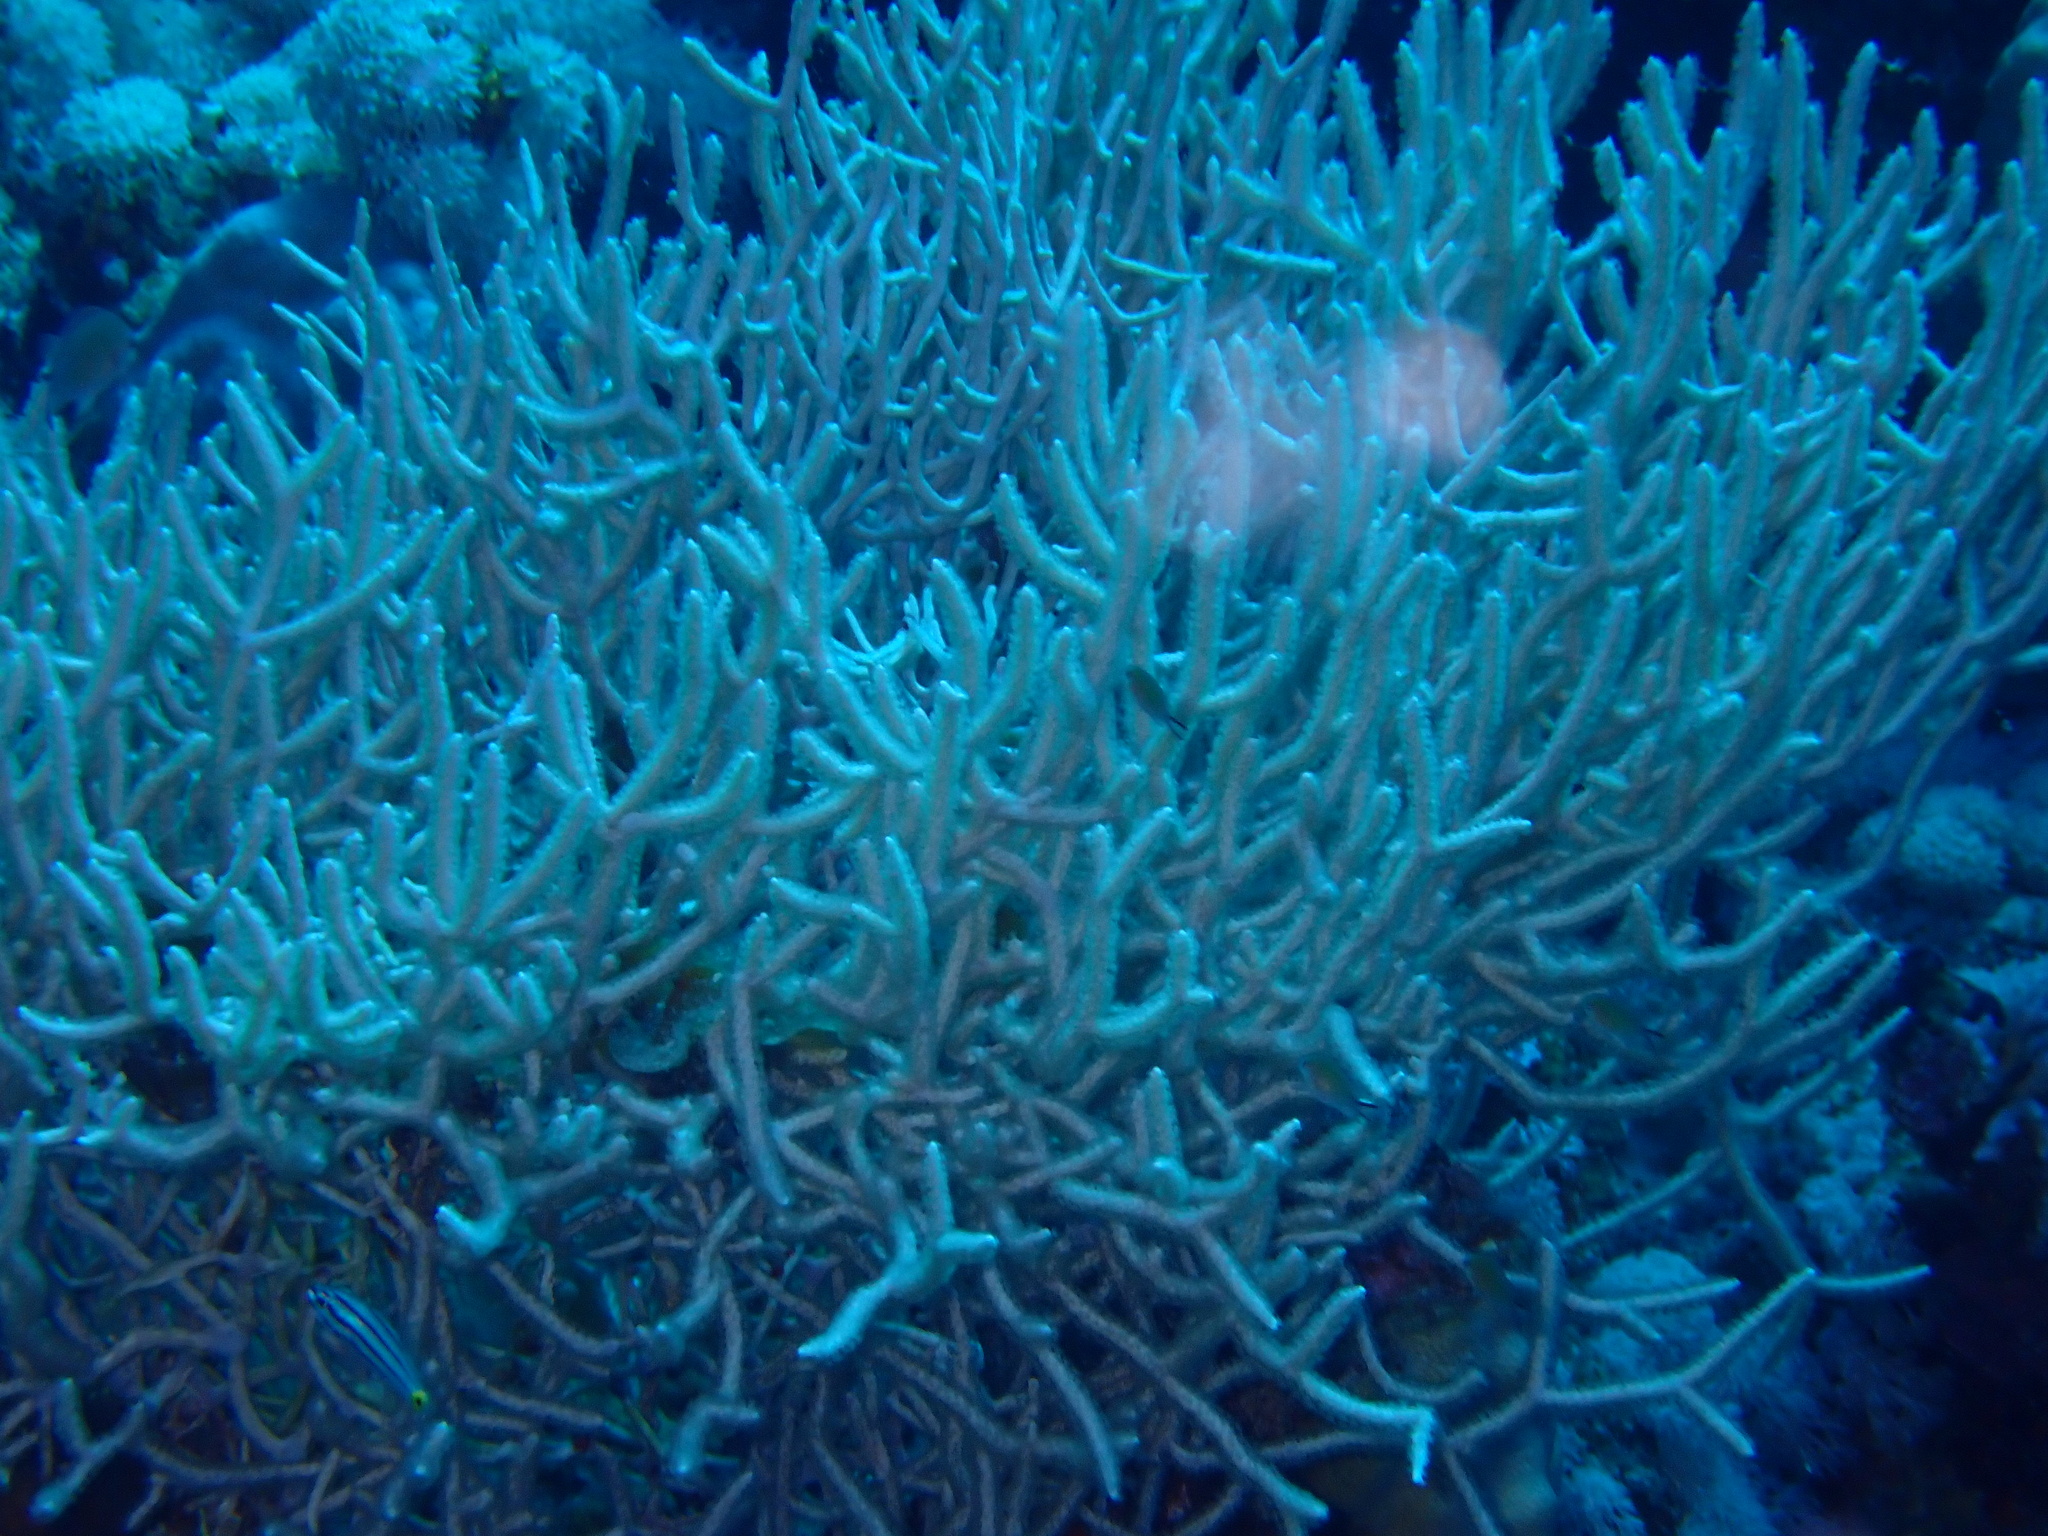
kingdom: Animalia
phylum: Cnidaria
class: Anthozoa
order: Malacalcyonacea
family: Melithaeidae
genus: Melithaea
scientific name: Melithaea rubrinodis
